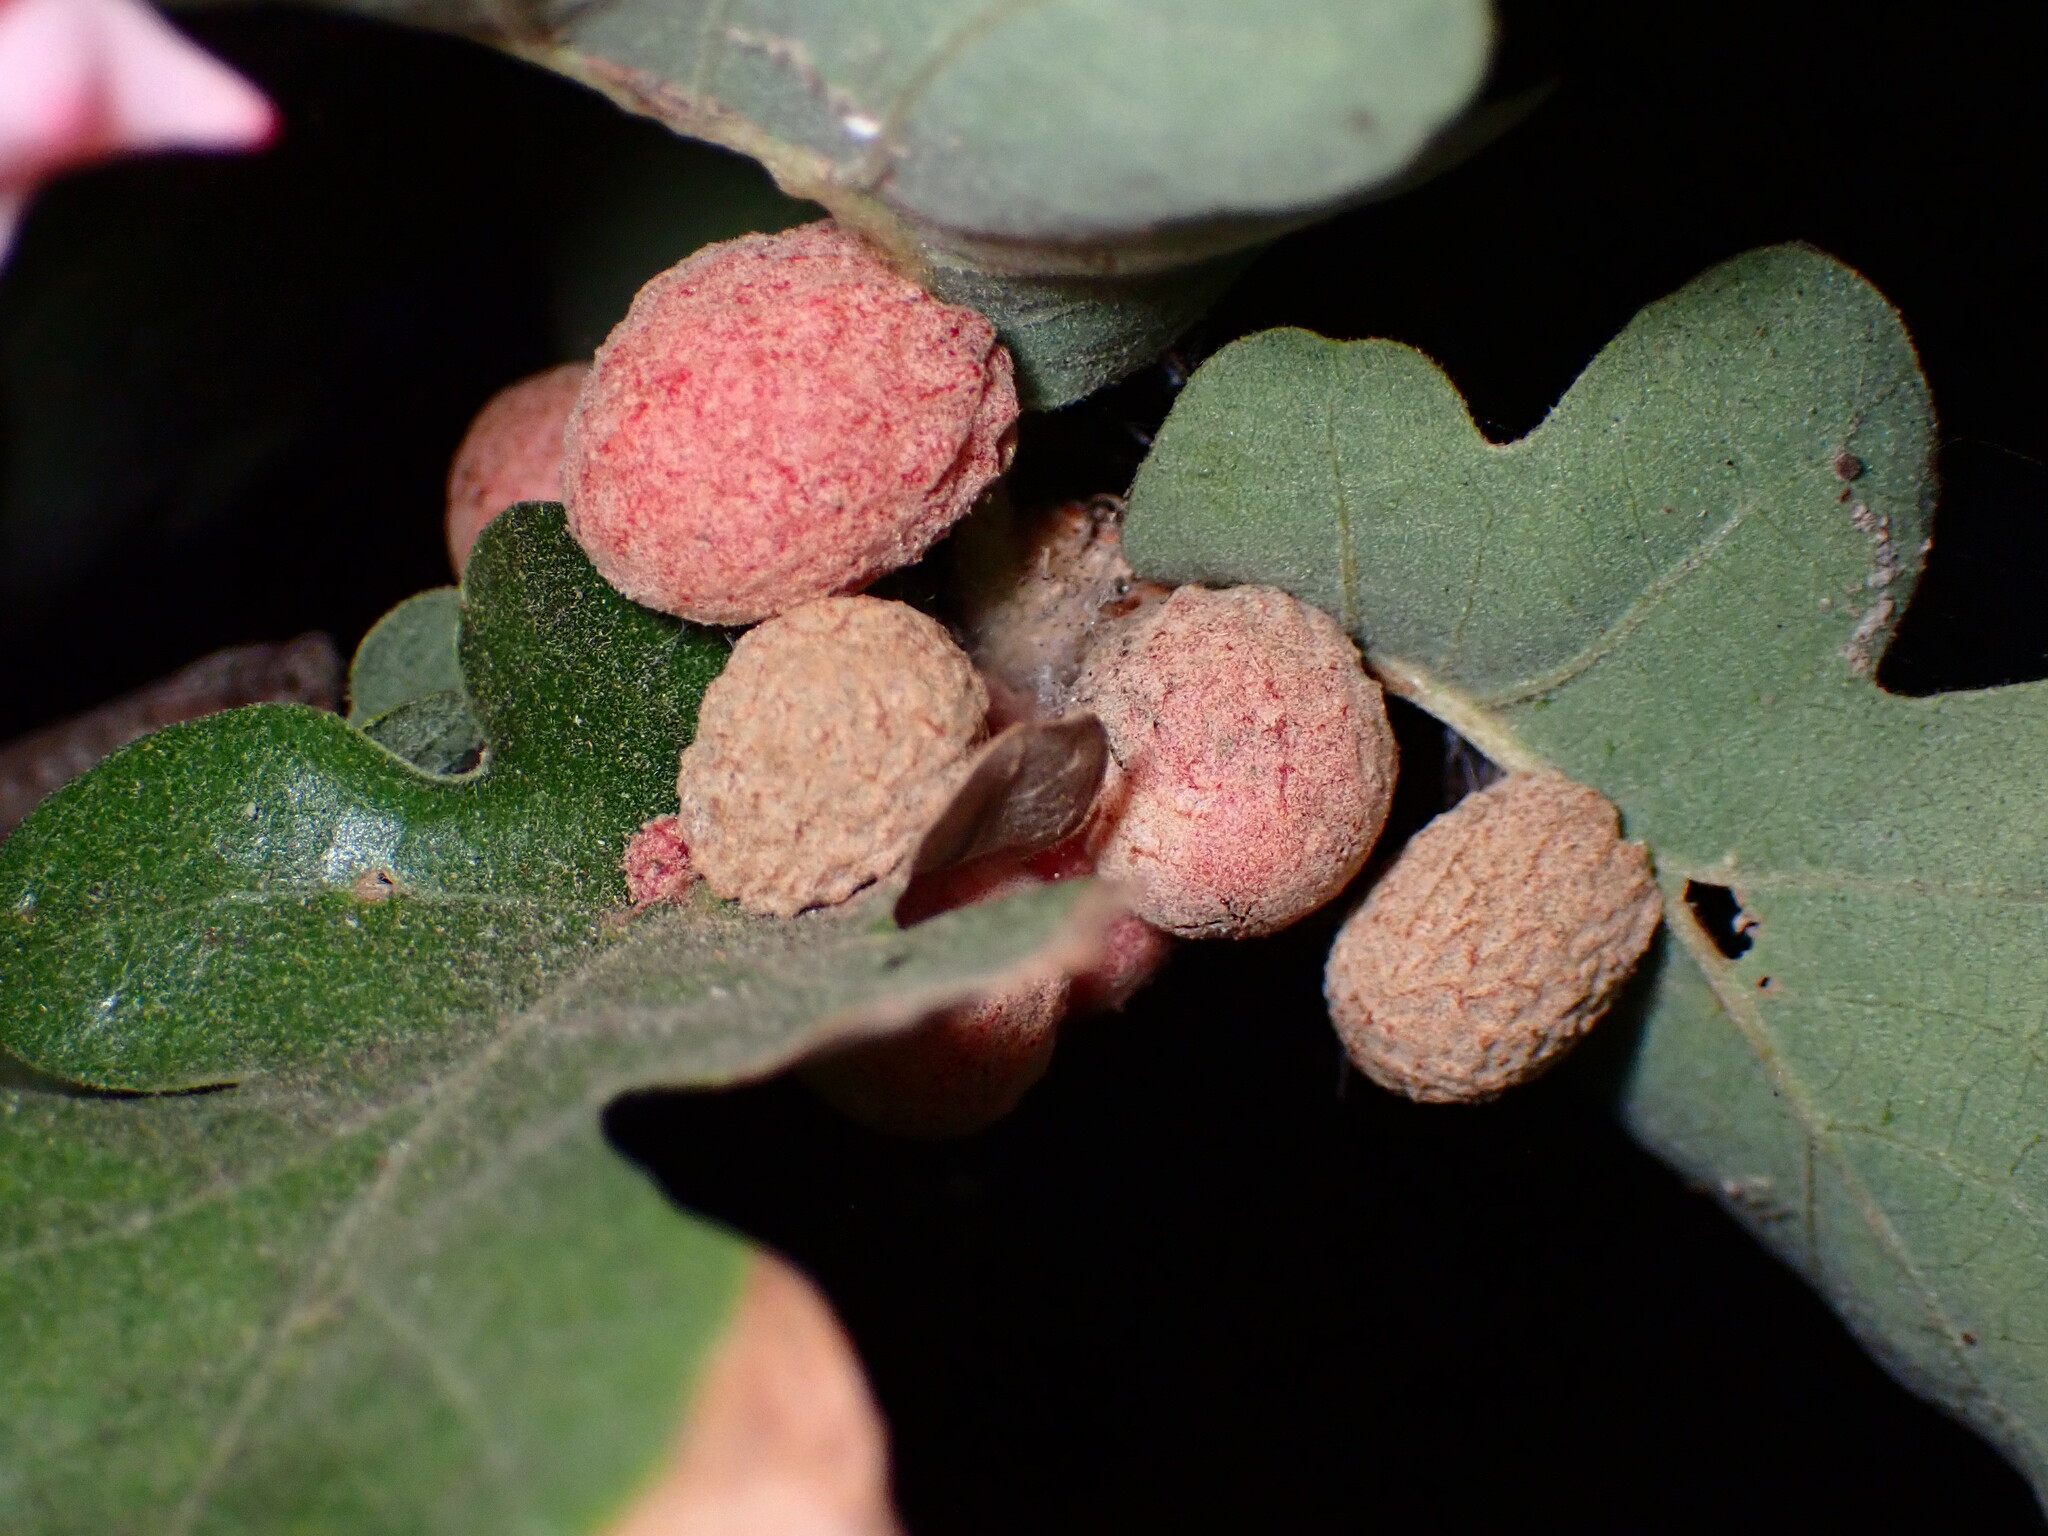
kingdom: Animalia
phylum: Arthropoda
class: Insecta
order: Hymenoptera
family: Cynipidae
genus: Cynips
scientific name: Cynips conspicua
